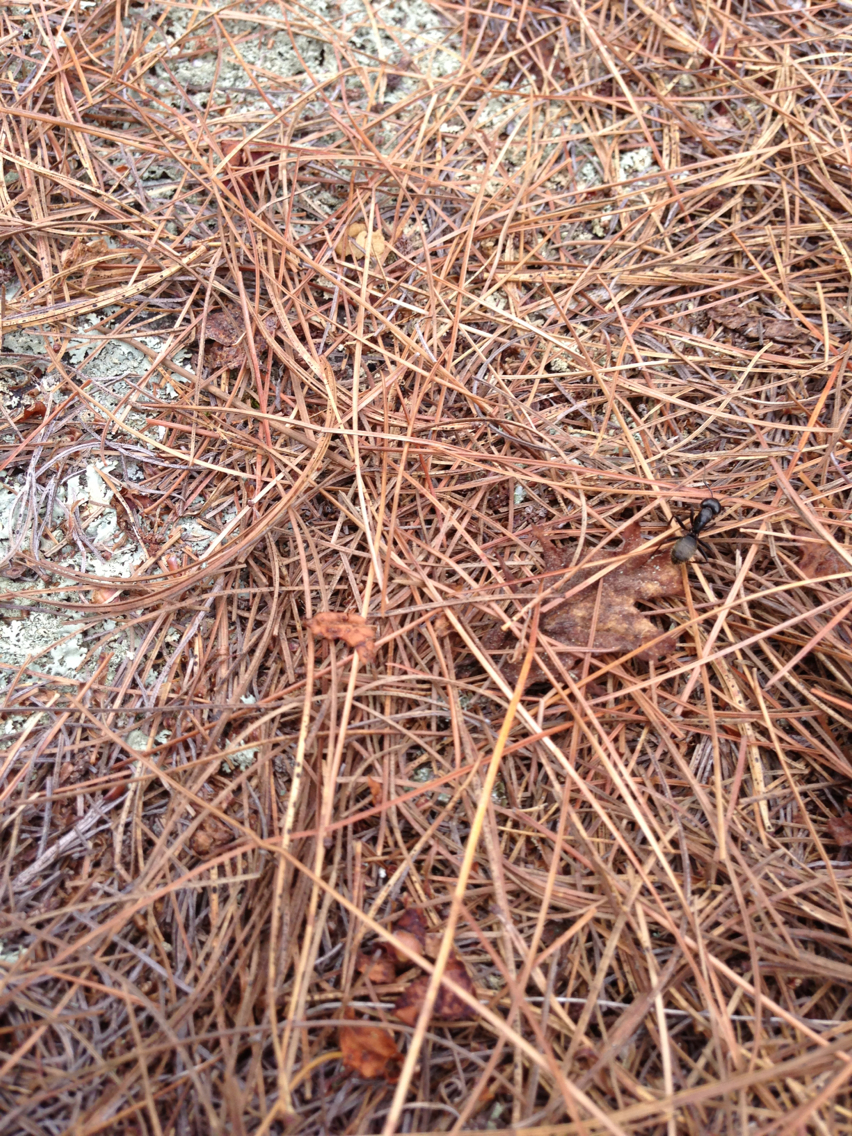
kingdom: Animalia
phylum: Arthropoda
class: Insecta
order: Hymenoptera
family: Formicidae
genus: Camponotus
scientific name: Camponotus pennsylvanicus
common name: Black carpenter ant
